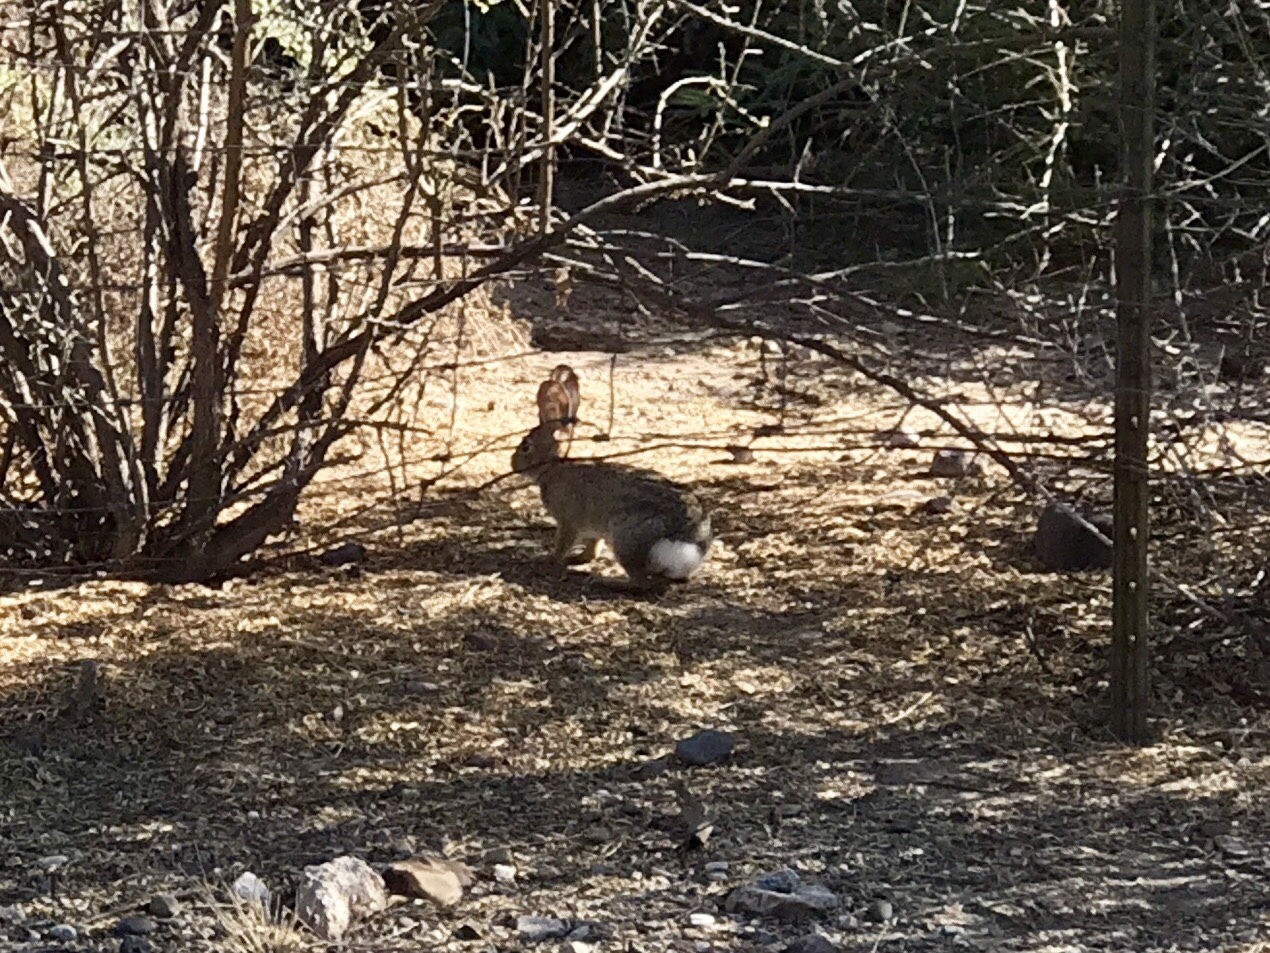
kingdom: Animalia
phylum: Chordata
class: Mammalia
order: Lagomorpha
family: Leporidae
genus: Sylvilagus
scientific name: Sylvilagus audubonii
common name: Desert cottontail
